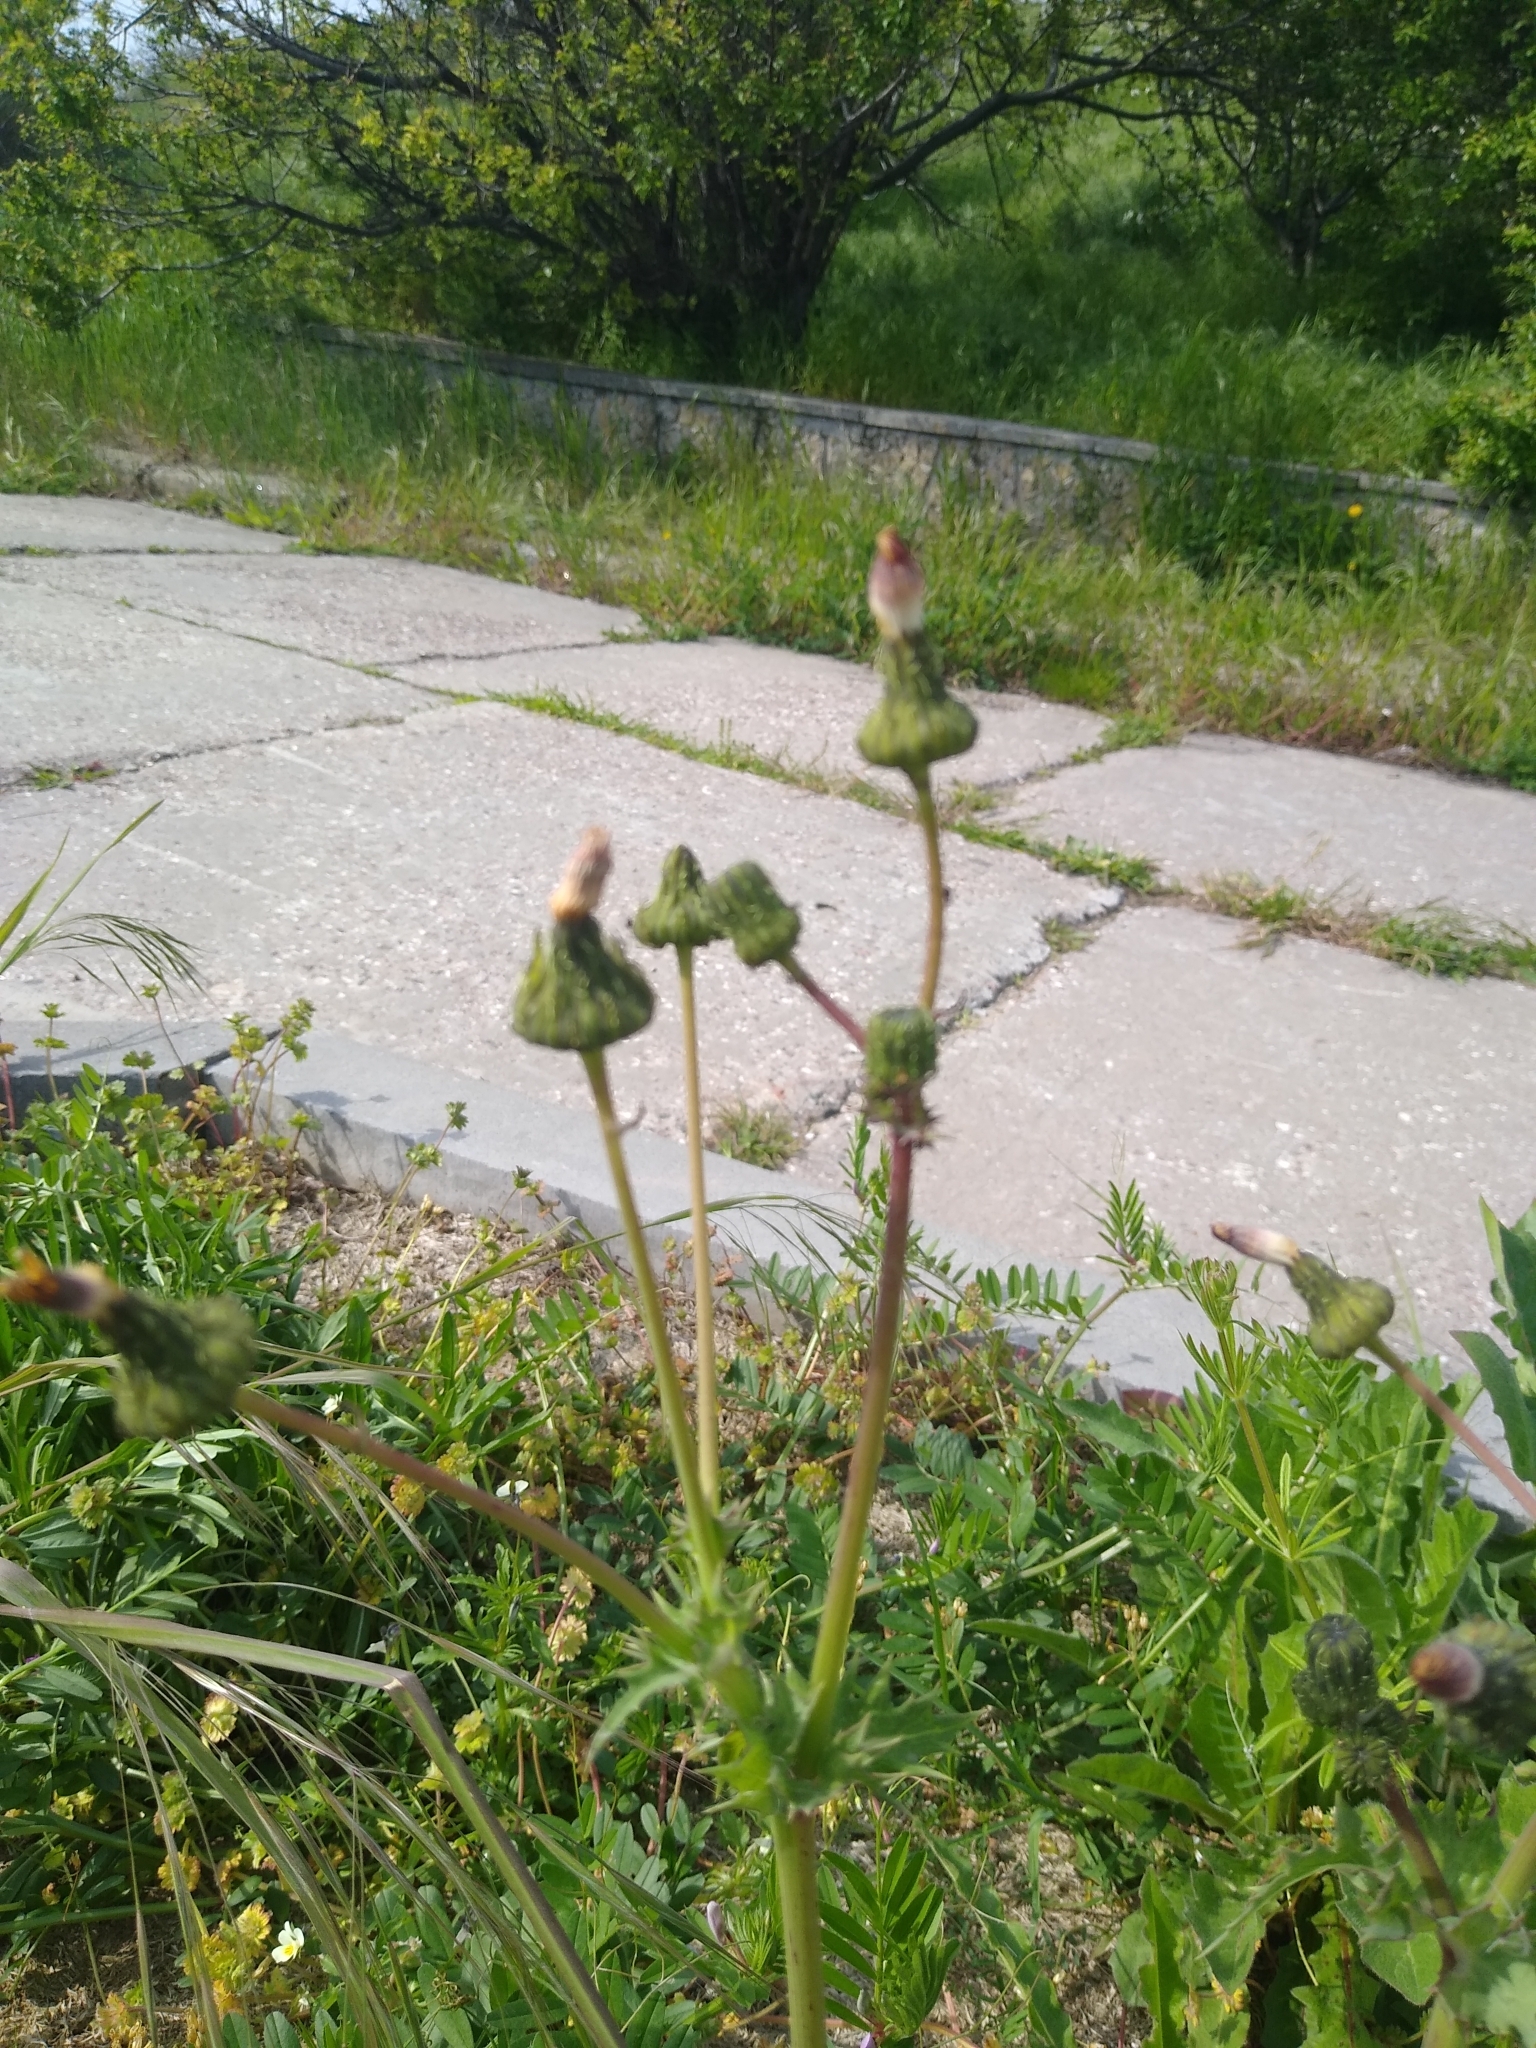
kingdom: Plantae
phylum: Tracheophyta
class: Magnoliopsida
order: Asterales
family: Asteraceae
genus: Sonchus
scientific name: Sonchus asper
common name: Prickly sow-thistle
